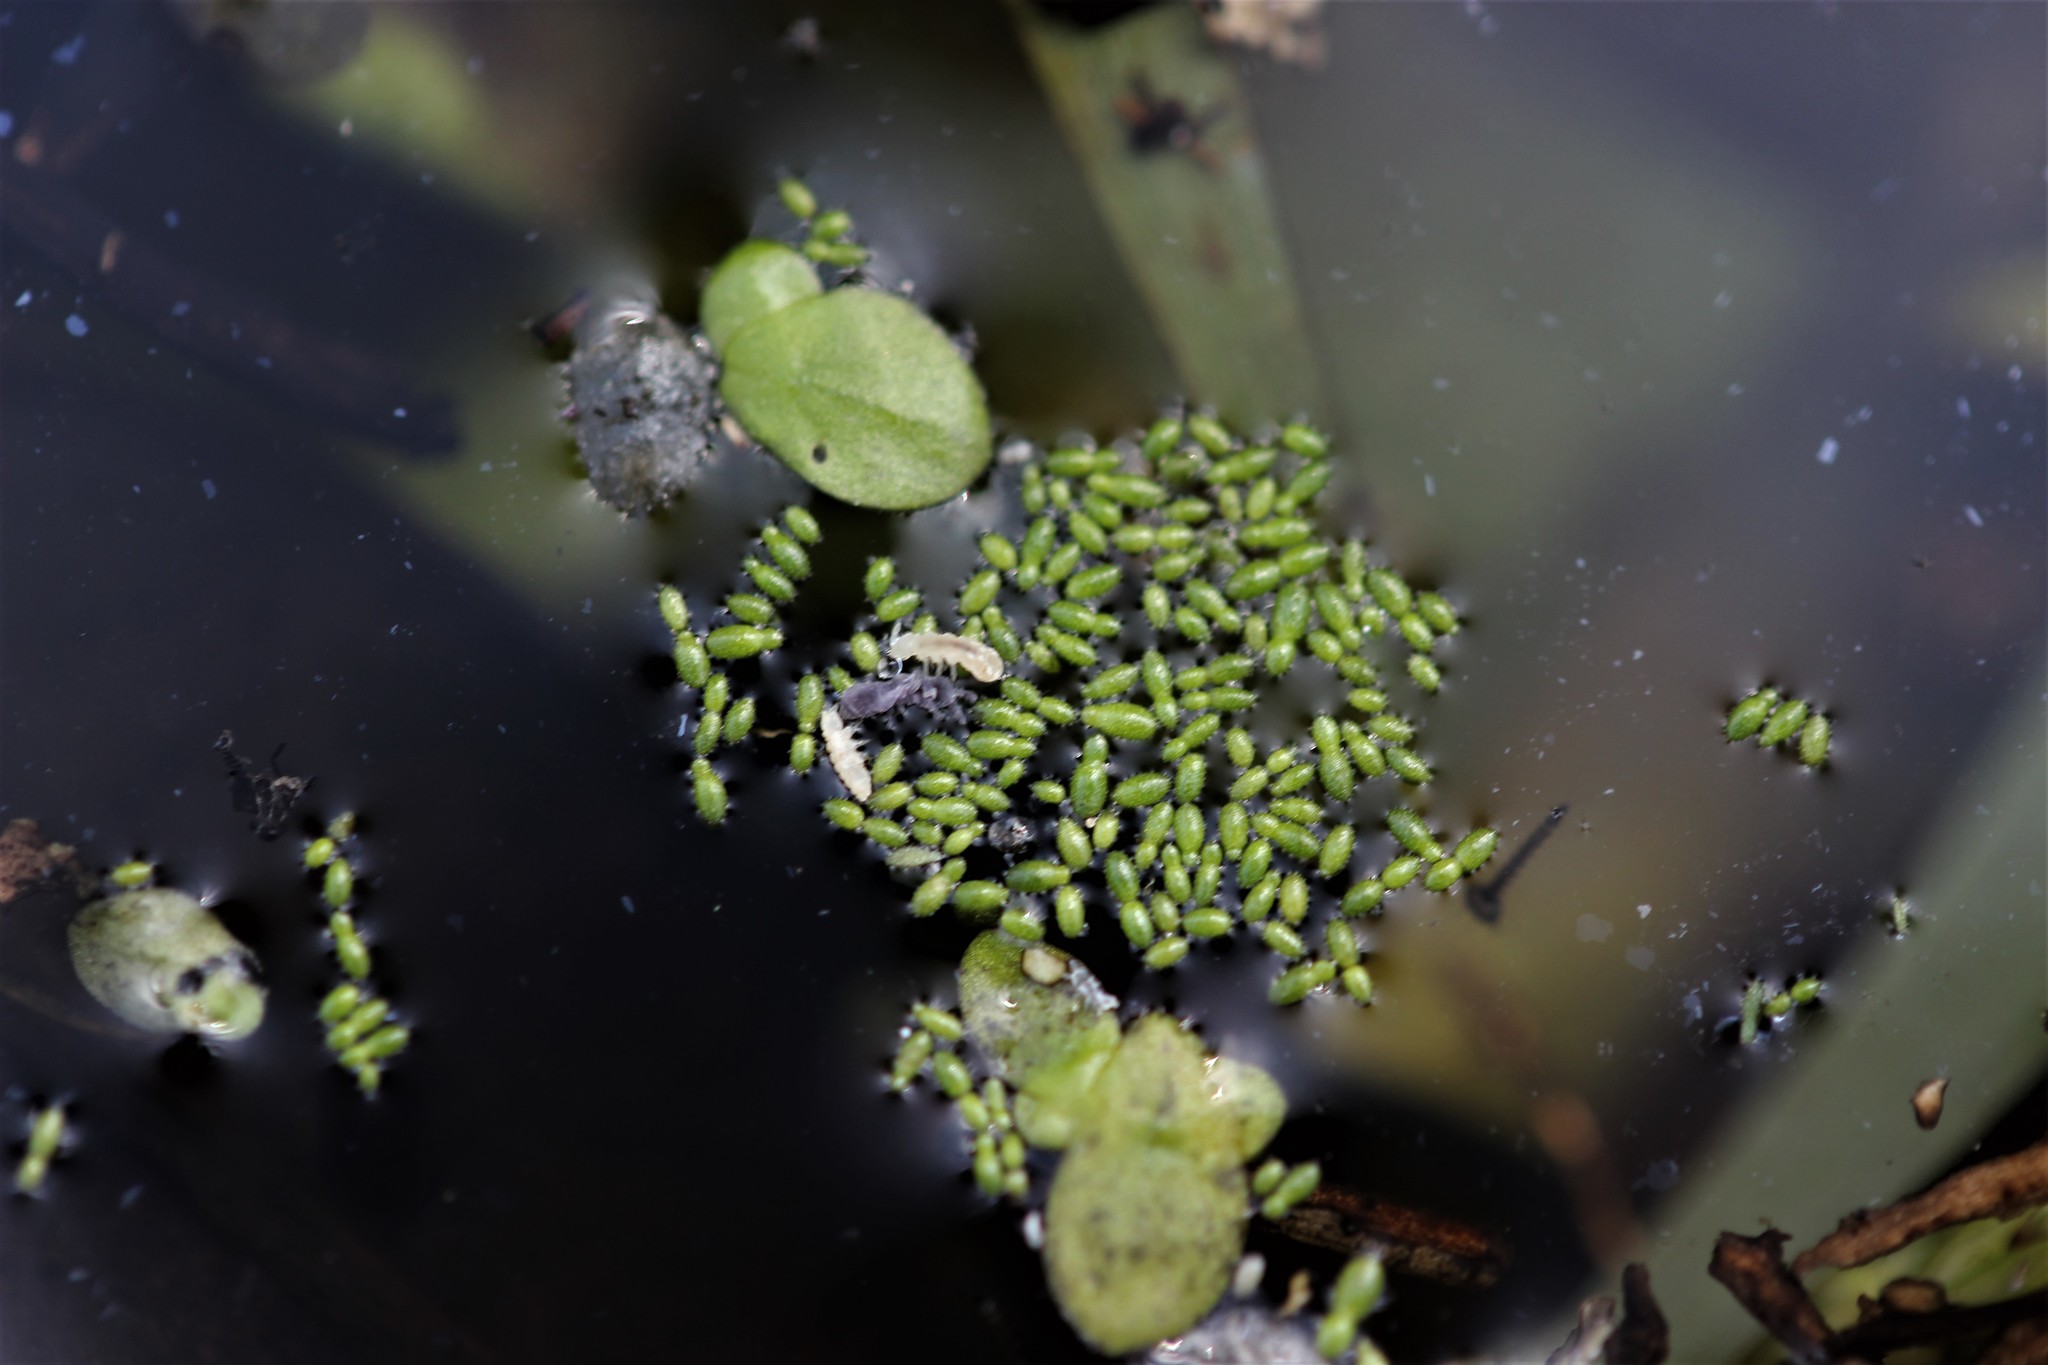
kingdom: Plantae
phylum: Tracheophyta
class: Liliopsida
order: Alismatales
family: Araceae
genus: Wolffia
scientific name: Wolffia australiana
